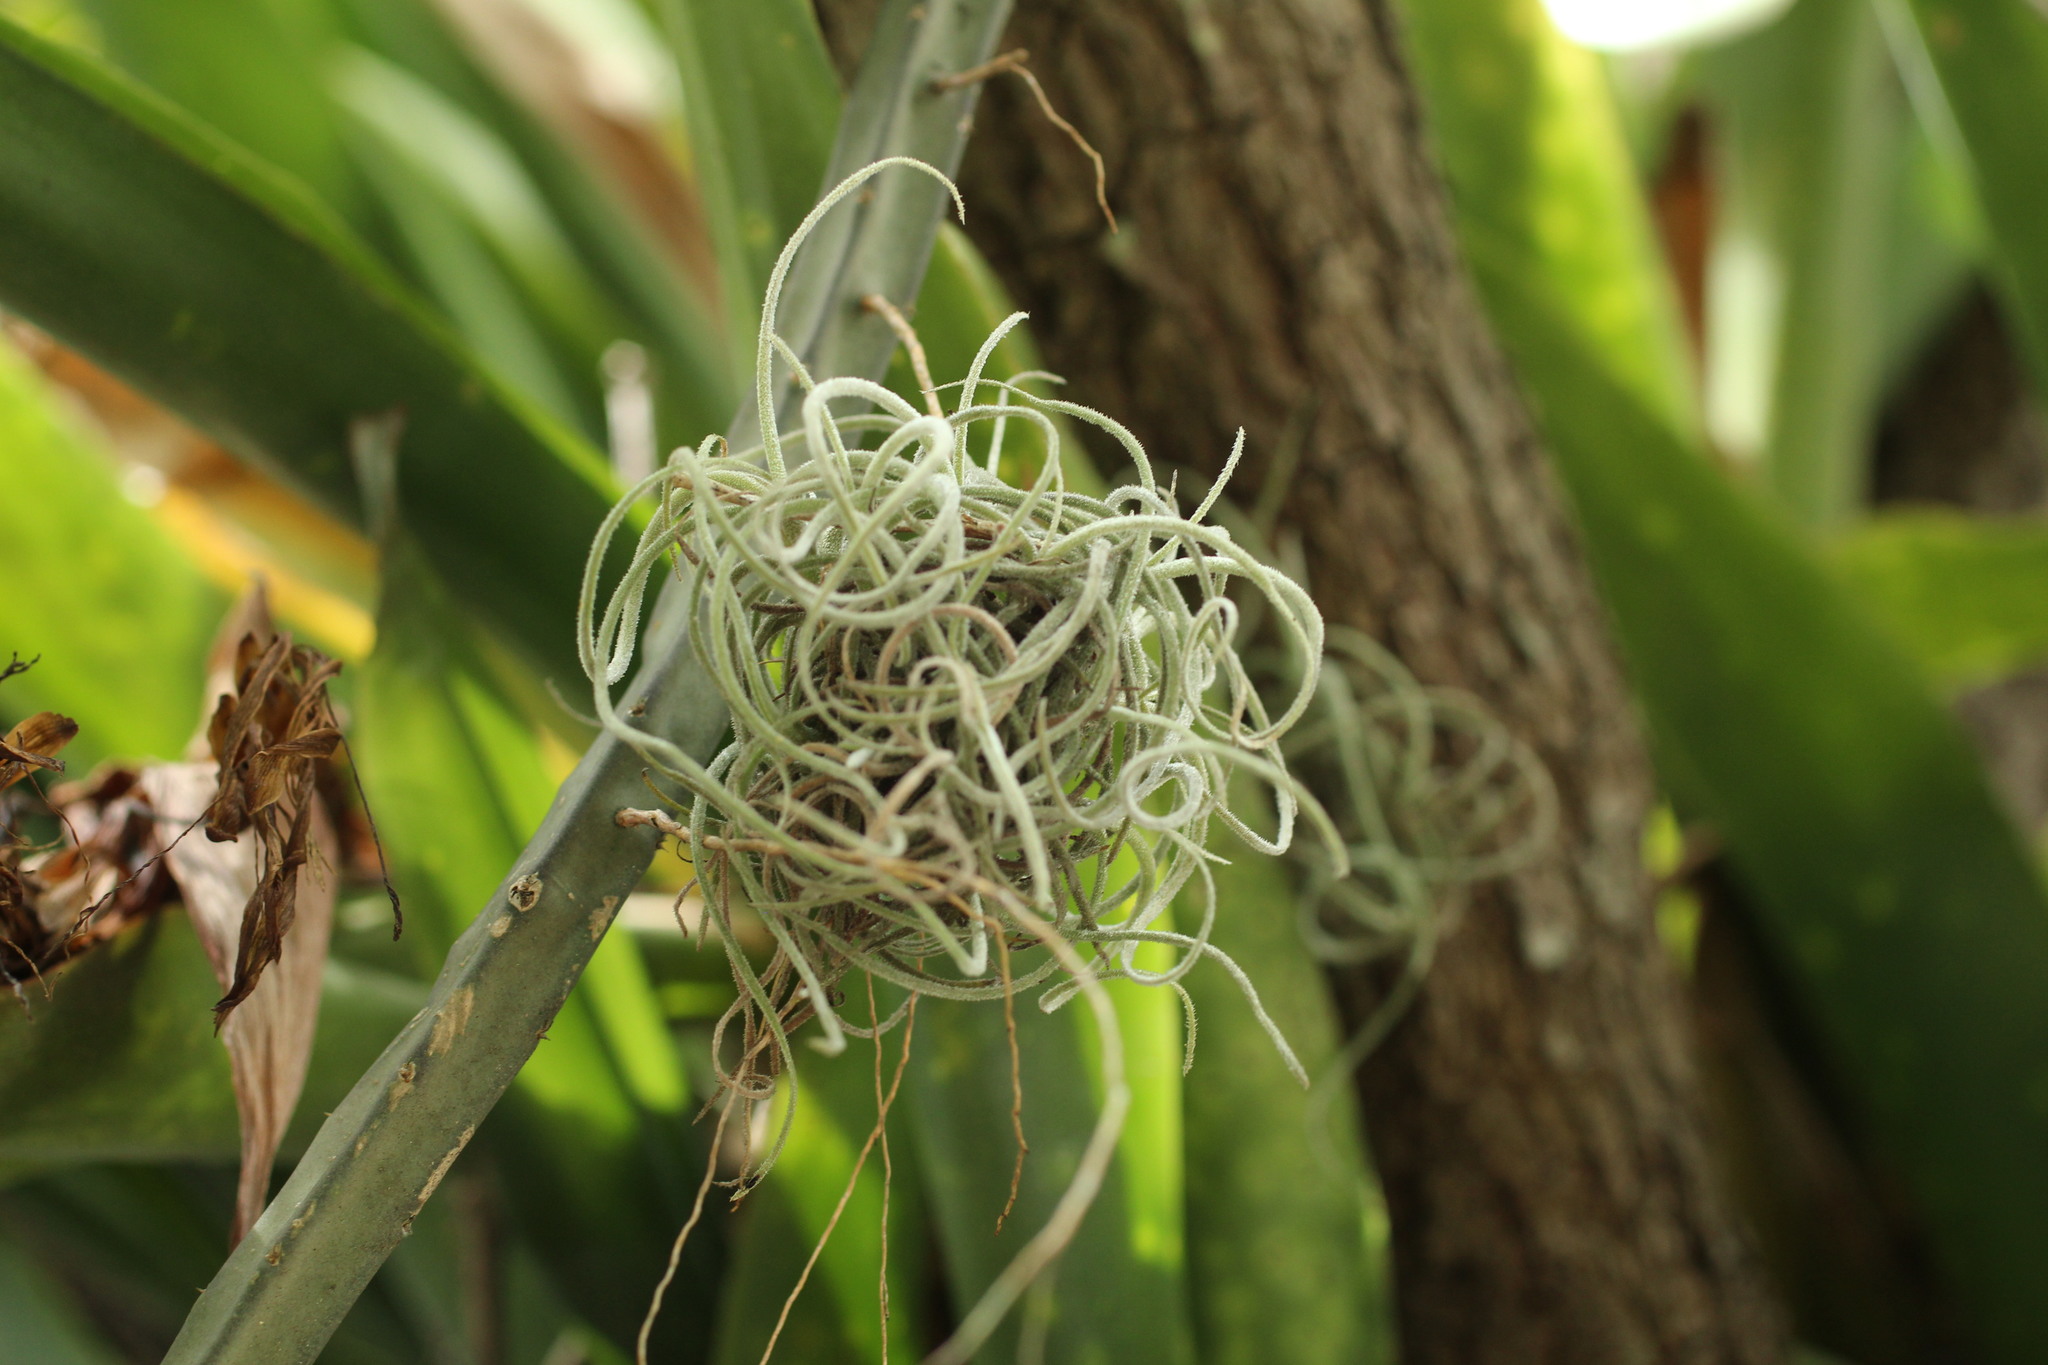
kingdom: Plantae
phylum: Tracheophyta
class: Liliopsida
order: Poales
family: Bromeliaceae
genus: Tillandsia
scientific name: Tillandsia usneoides
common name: Spanish moss
